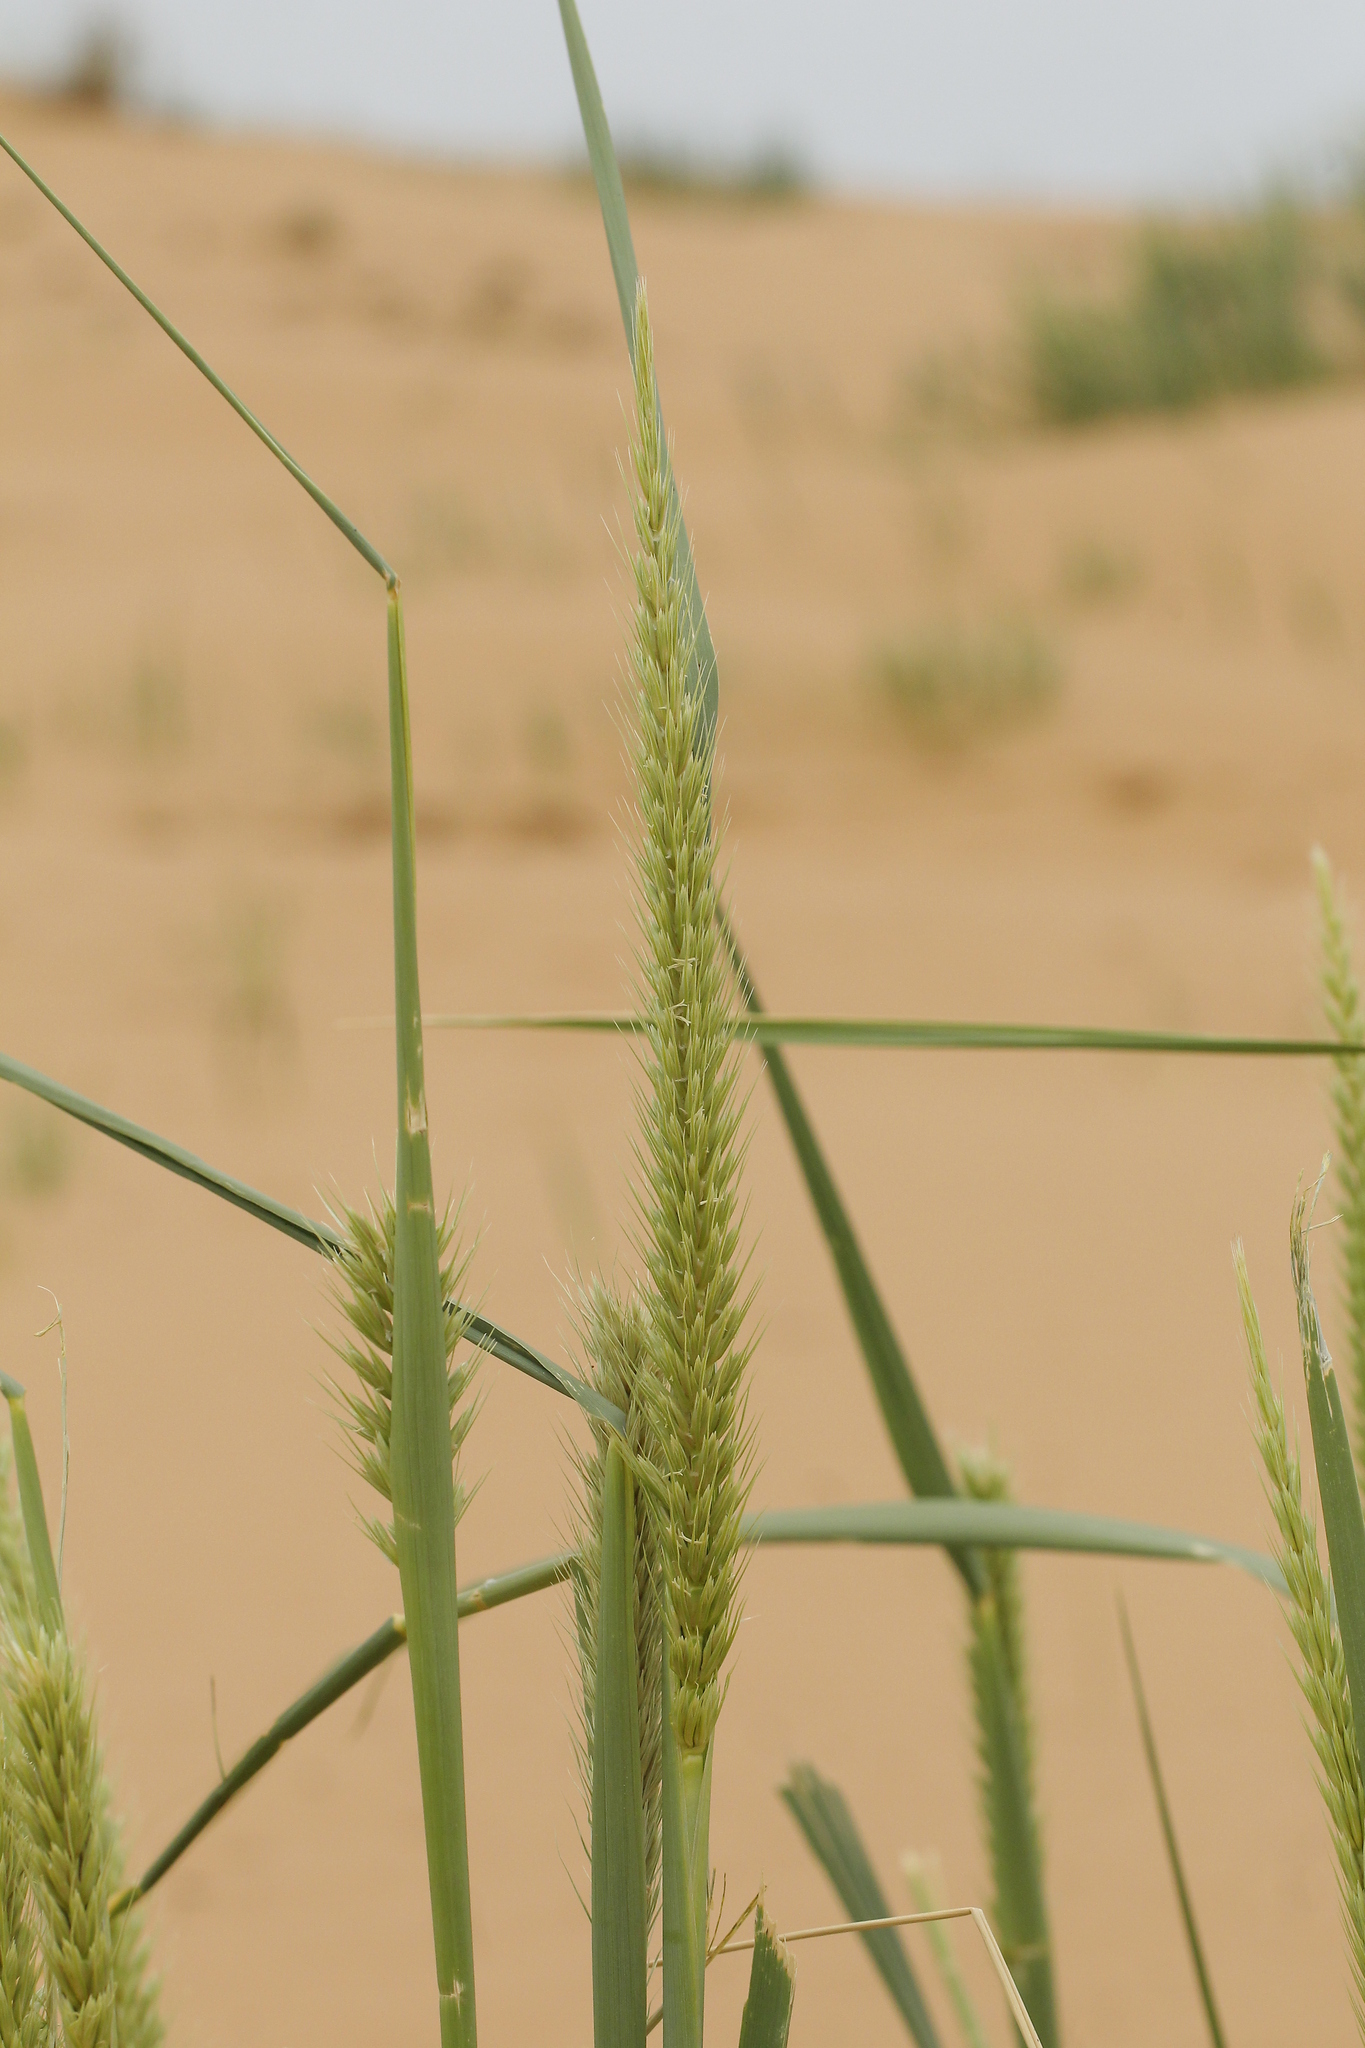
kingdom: Plantae
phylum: Tracheophyta
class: Liliopsida
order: Poales
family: Poaceae
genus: Leymus
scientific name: Leymus racemosus
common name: Mammoth wildrye
